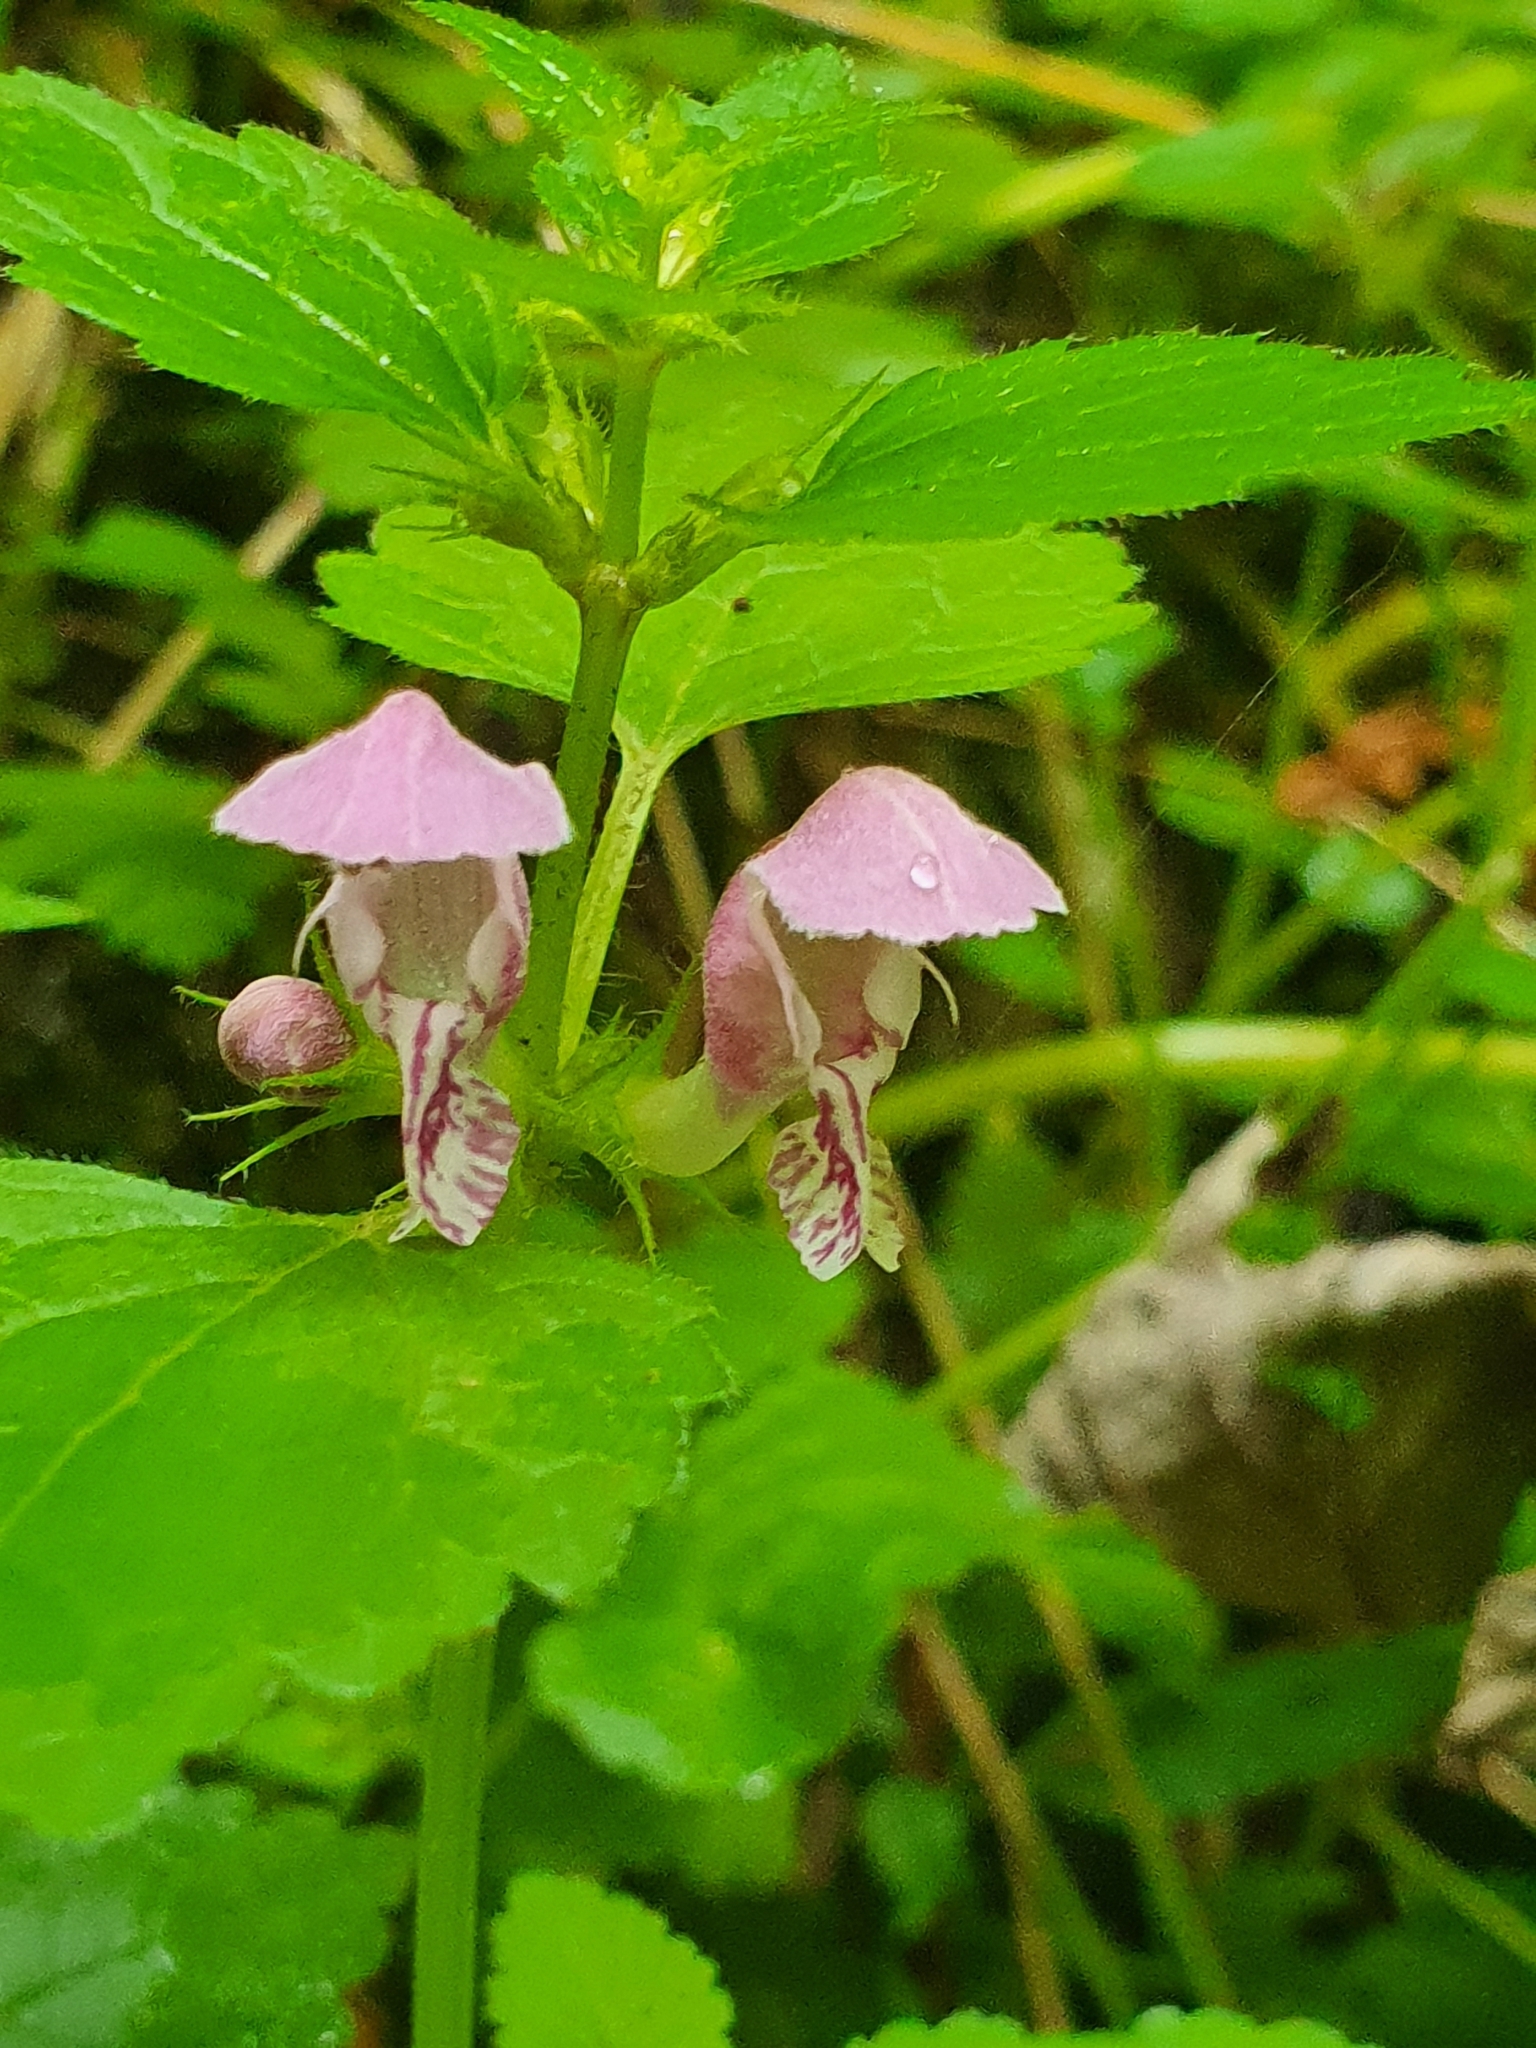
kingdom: Plantae
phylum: Tracheophyta
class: Magnoliopsida
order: Lamiales
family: Lamiaceae
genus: Lamium
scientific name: Lamium maculatum
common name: Spotted dead-nettle
